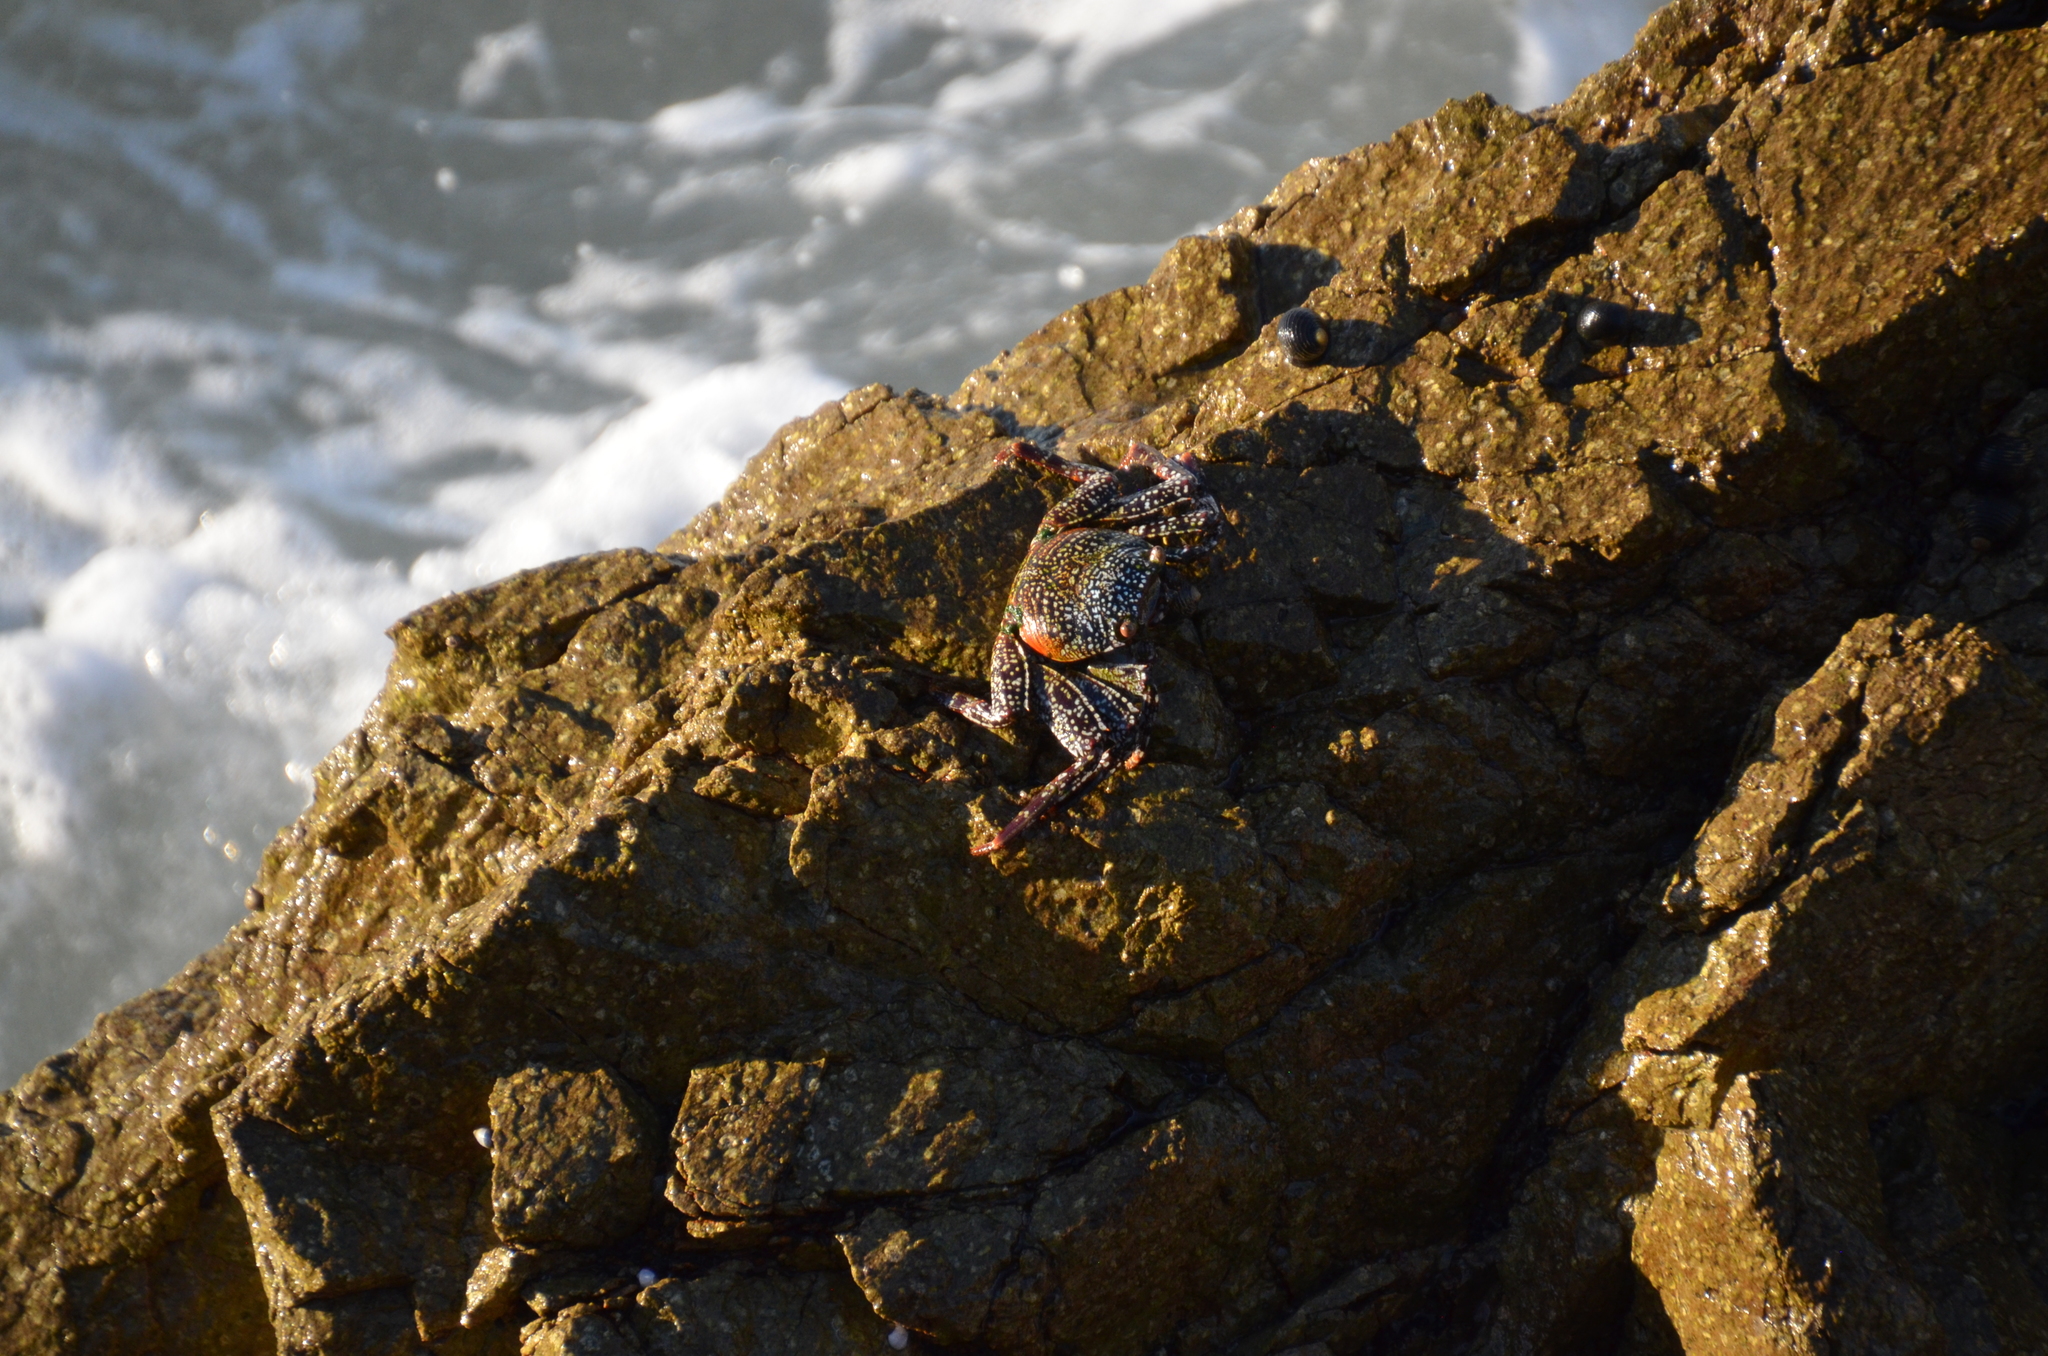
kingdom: Animalia
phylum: Arthropoda
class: Malacostraca
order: Decapoda
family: Grapsidae
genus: Grapsus
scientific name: Grapsus grapsus
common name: Sally lightfoot
